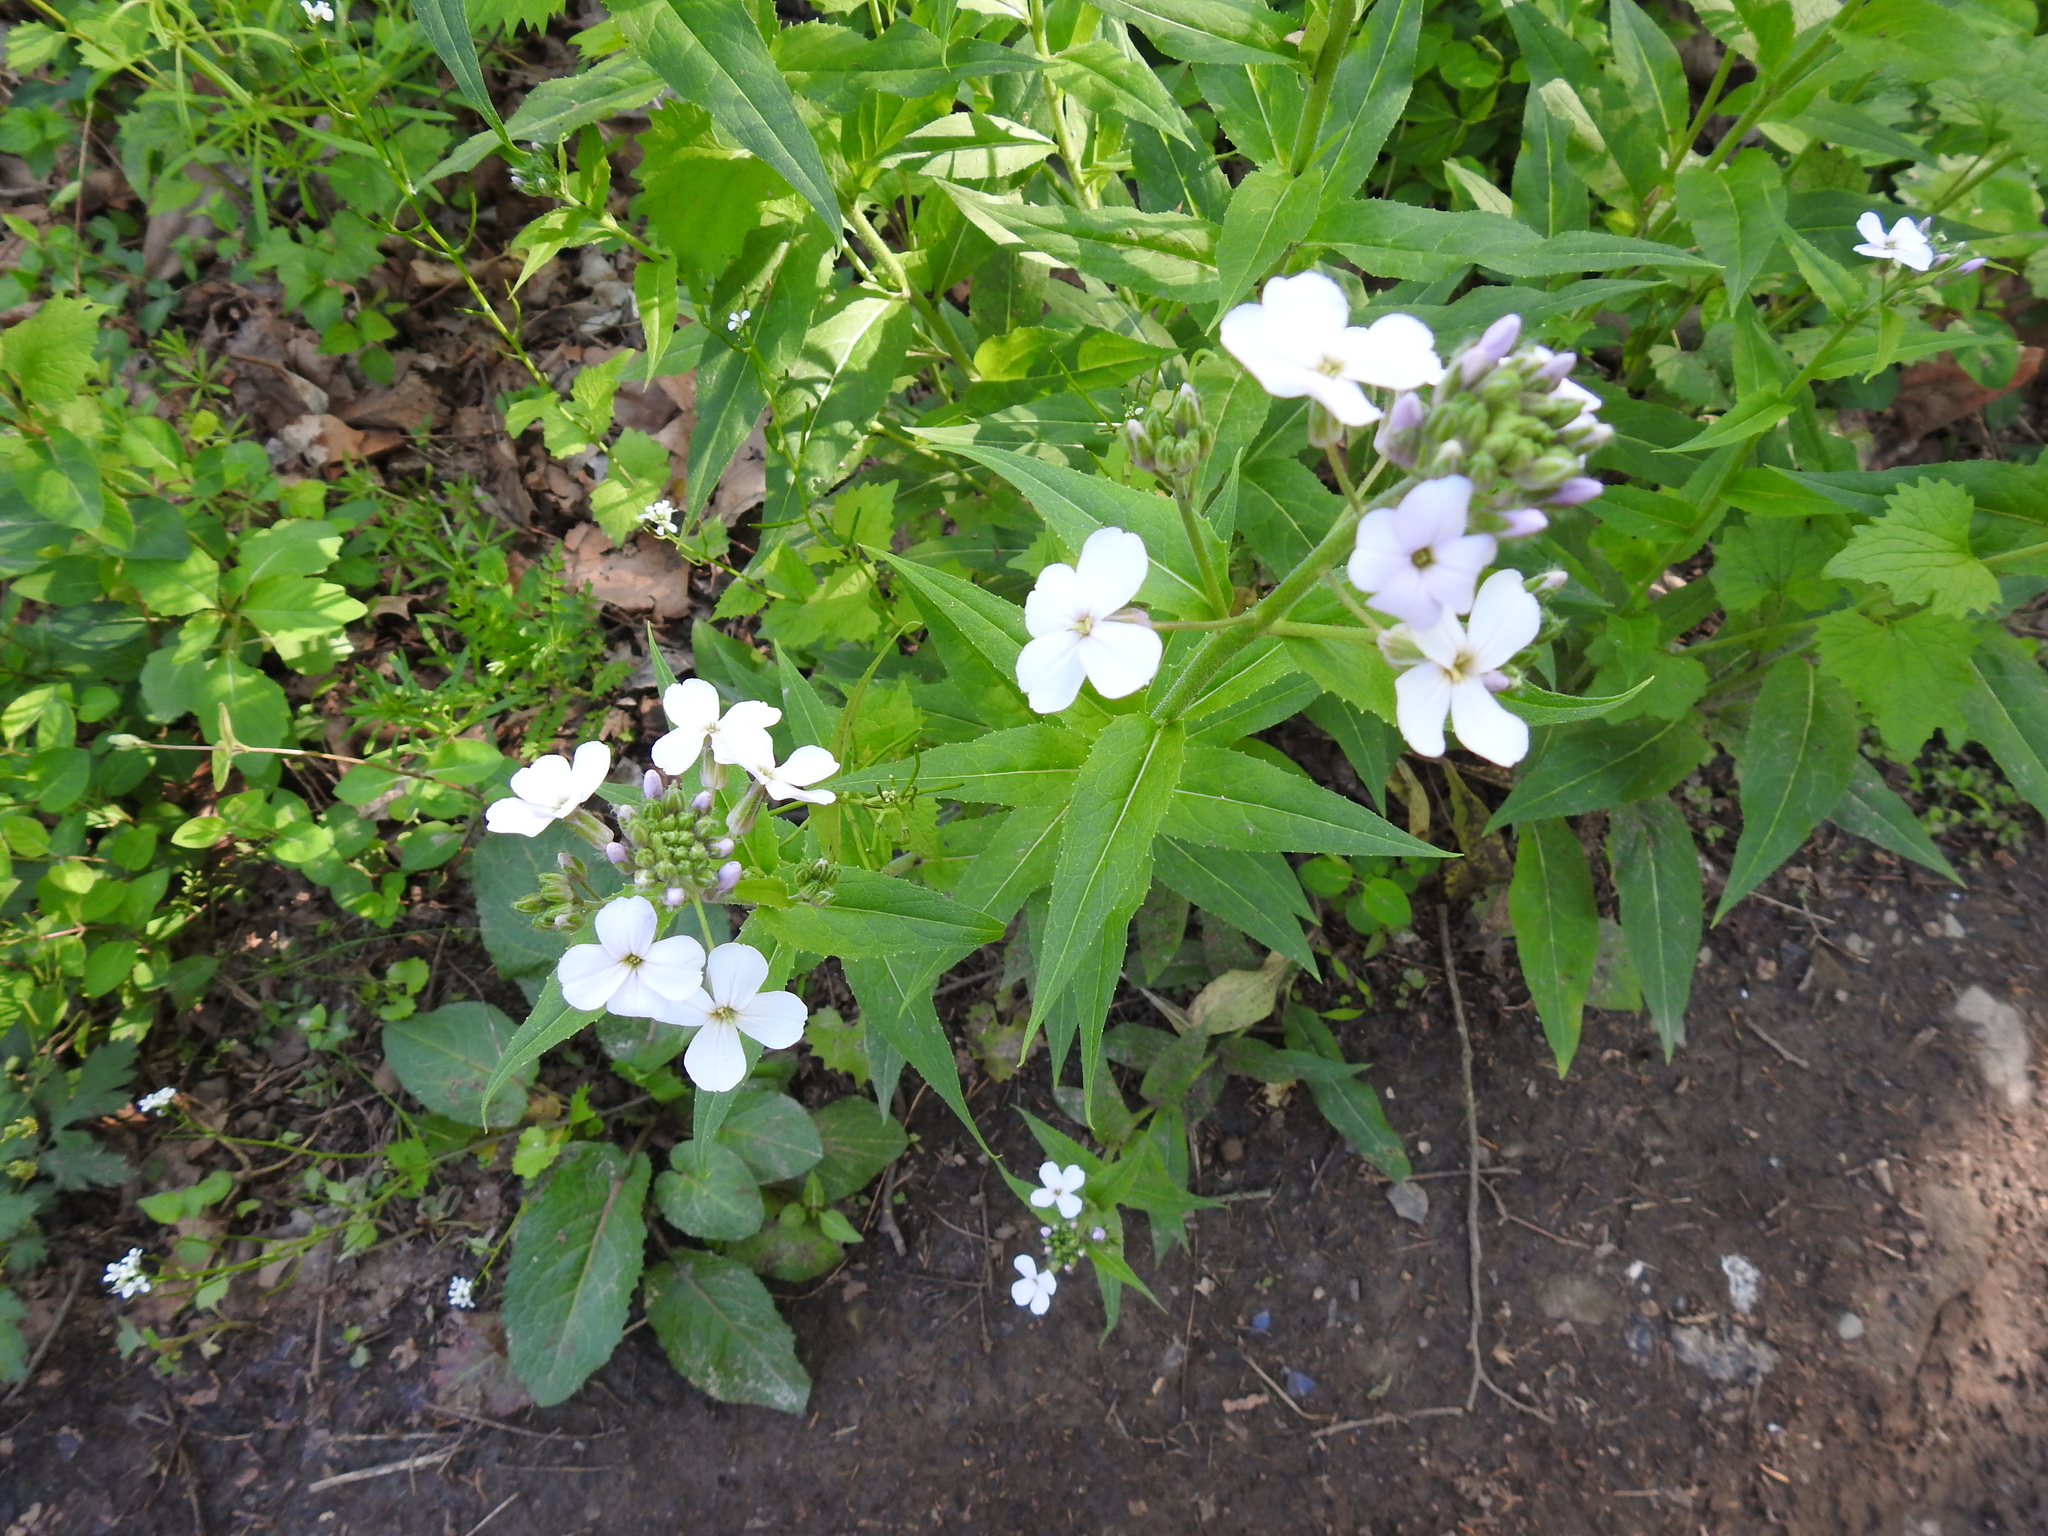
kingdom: Plantae
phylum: Tracheophyta
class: Magnoliopsida
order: Brassicales
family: Brassicaceae
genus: Hesperis
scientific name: Hesperis matronalis
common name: Dame's-violet
